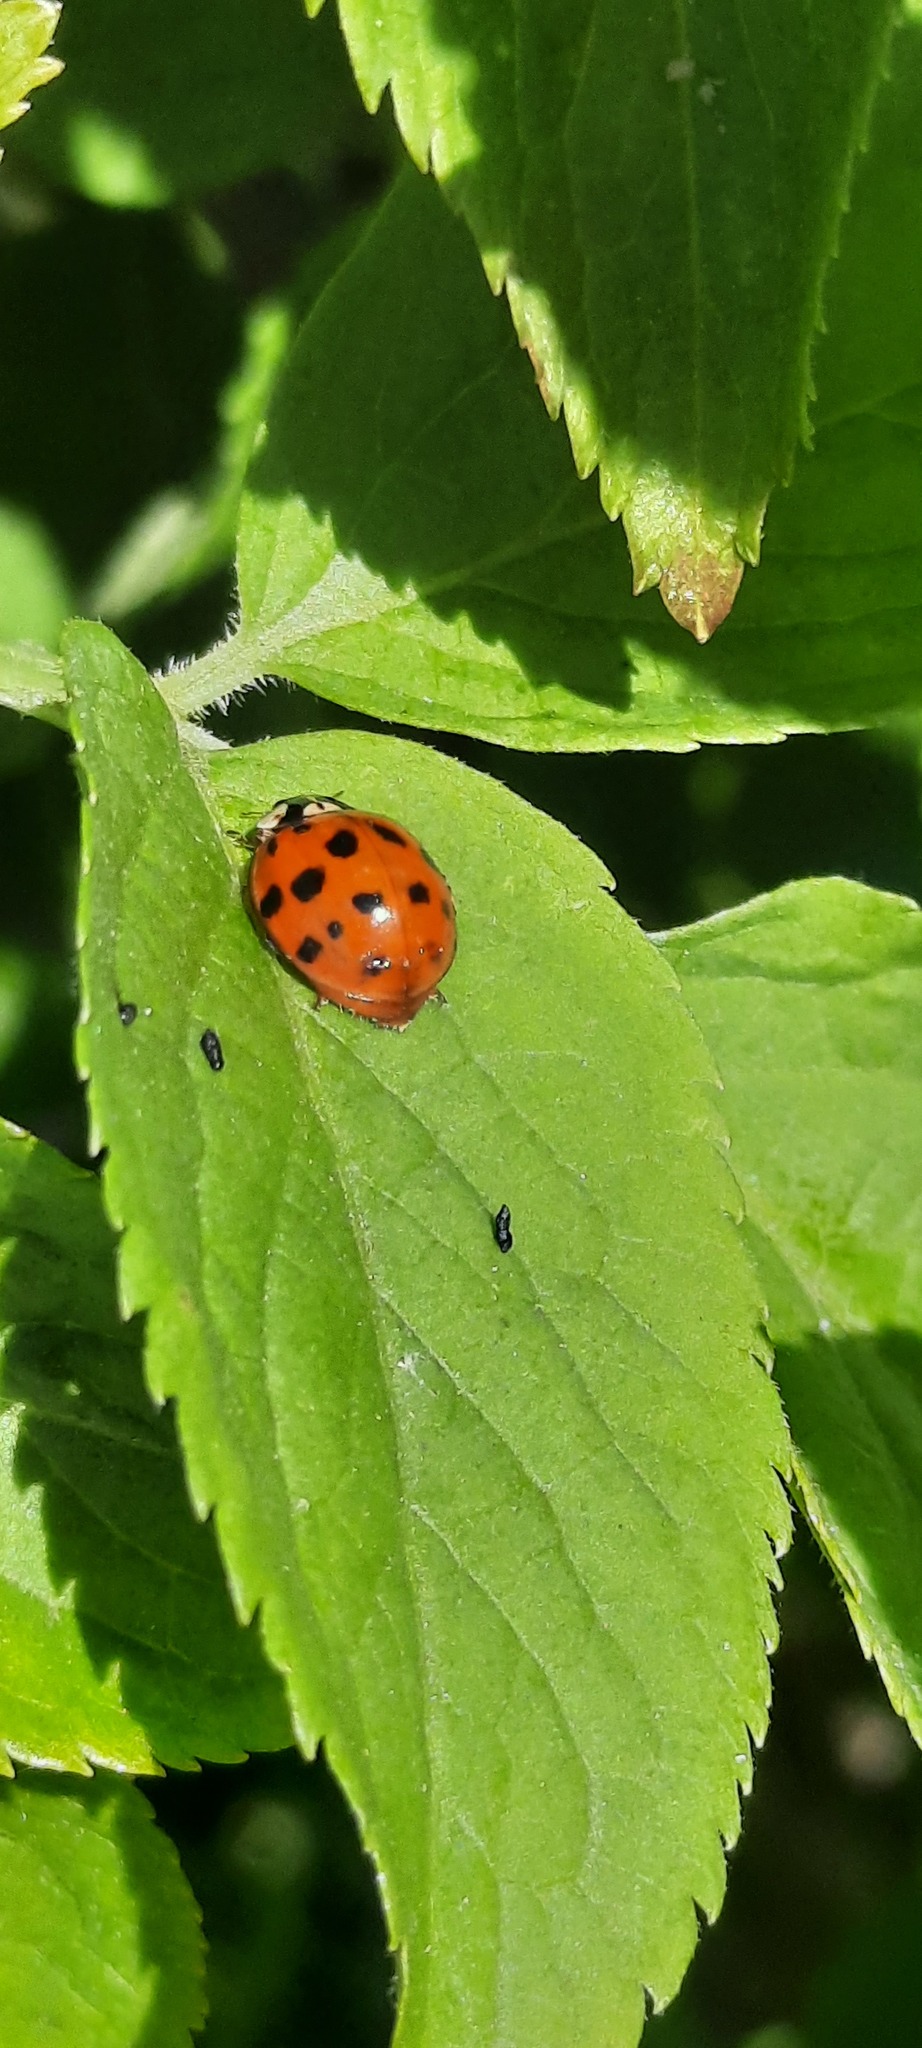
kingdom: Animalia
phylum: Arthropoda
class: Insecta
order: Coleoptera
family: Coccinellidae
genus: Harmonia
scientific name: Harmonia axyridis
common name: Harlequin ladybird
